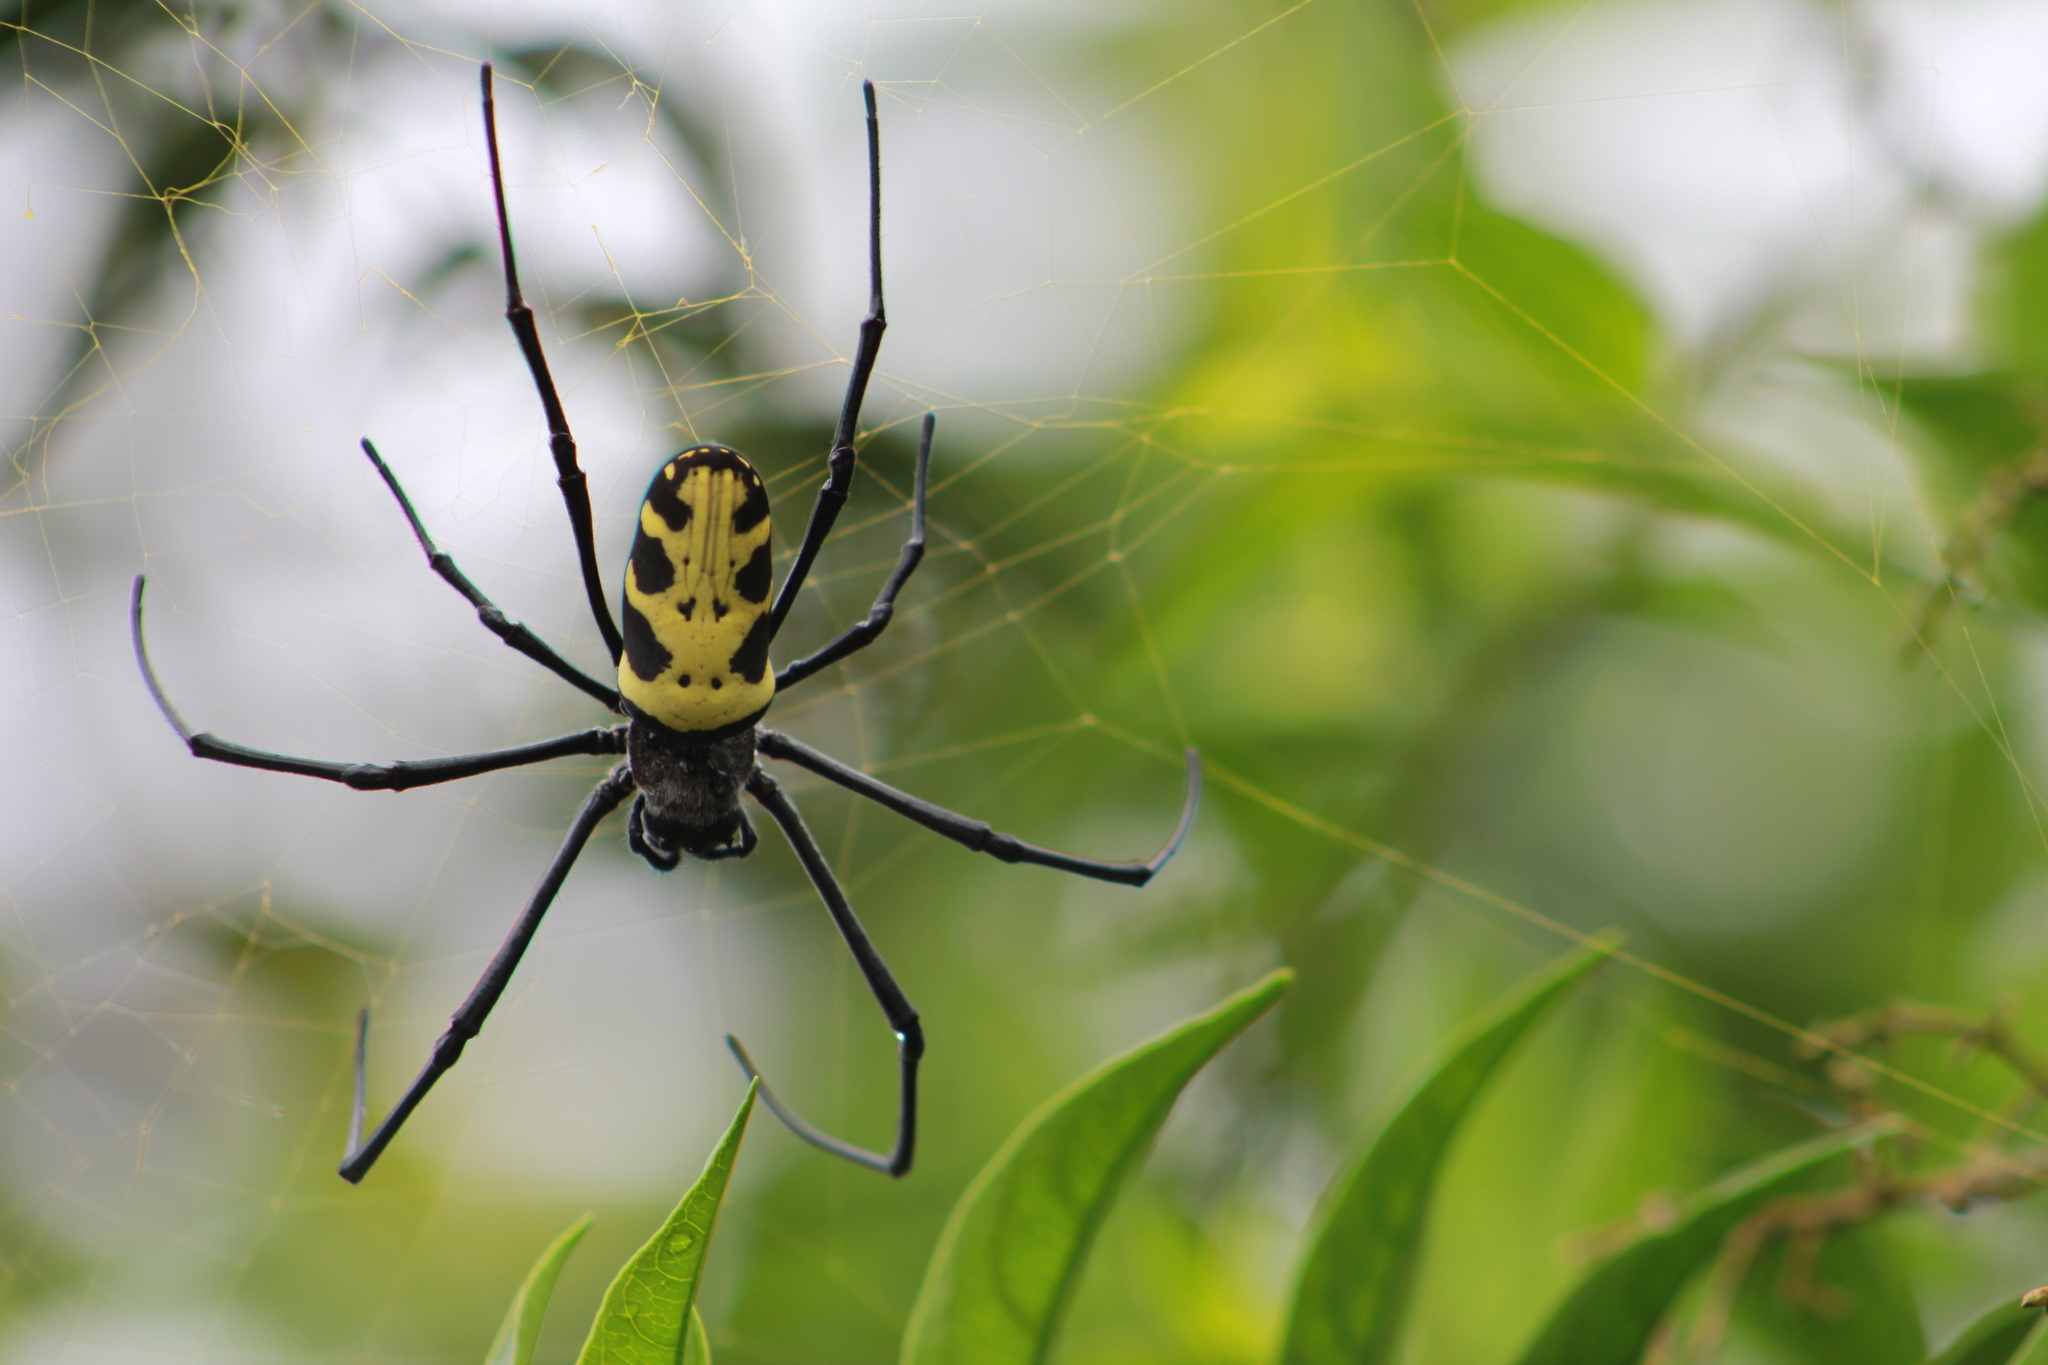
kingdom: Animalia
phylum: Arthropoda
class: Arachnida
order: Araneae
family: Araneidae
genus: Trichonephila
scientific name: Trichonephila turneri
